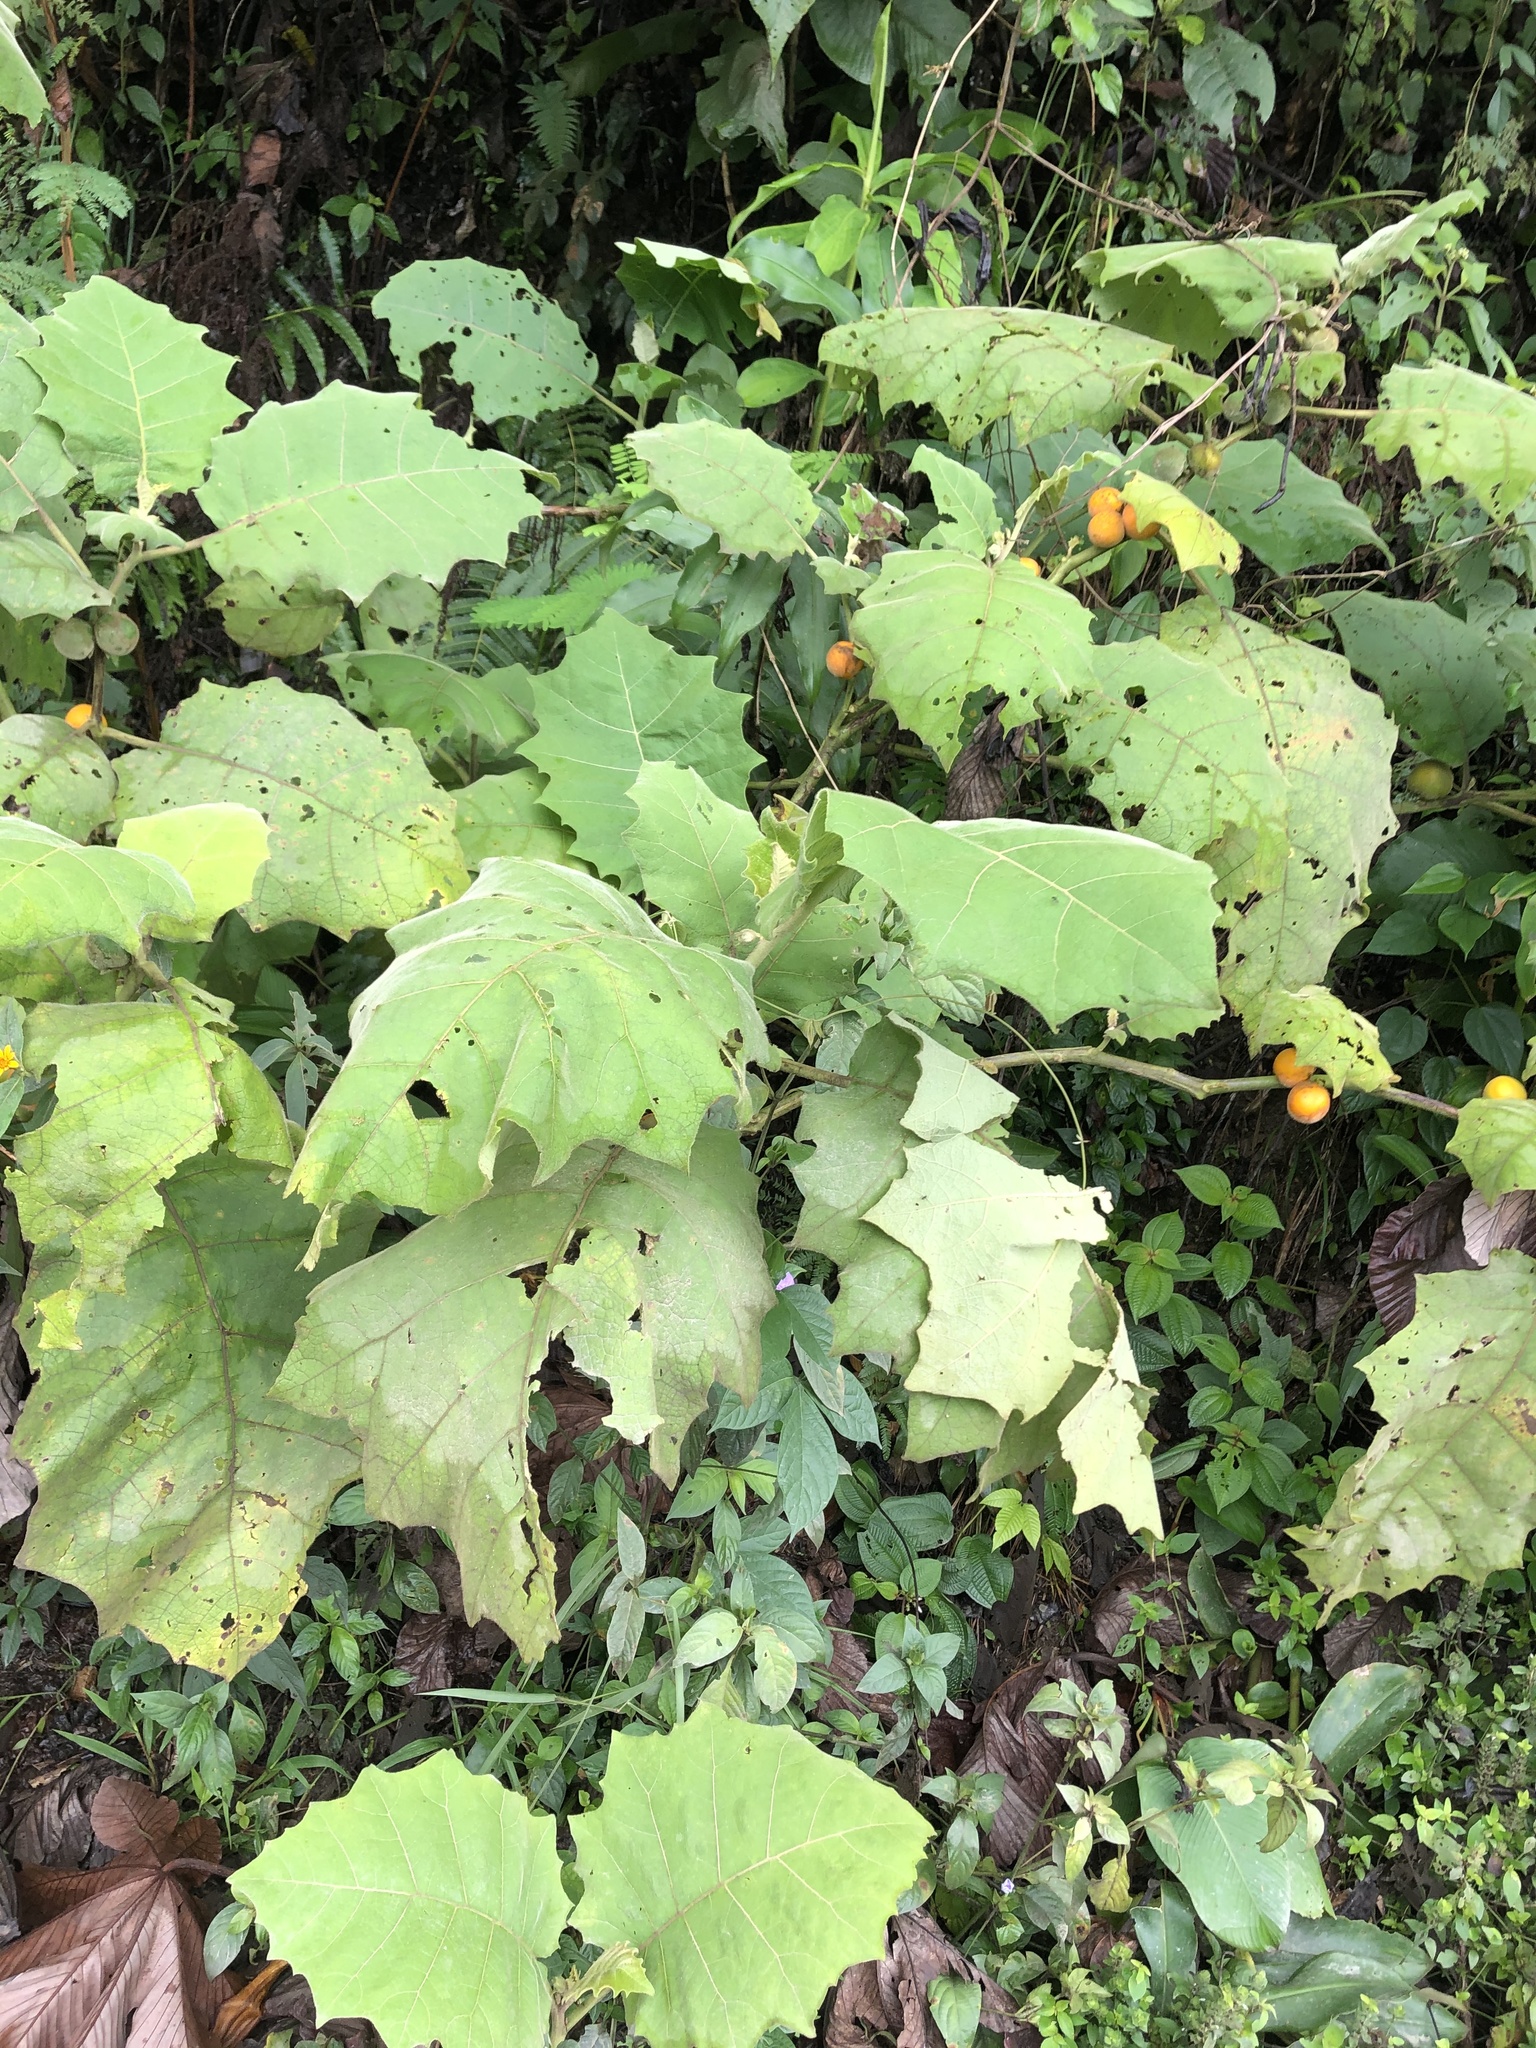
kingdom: Plantae
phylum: Tracheophyta
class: Magnoliopsida
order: Solanales
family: Solanaceae
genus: Solanum
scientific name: Solanum sessiliflorum
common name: Orinoco-apple
